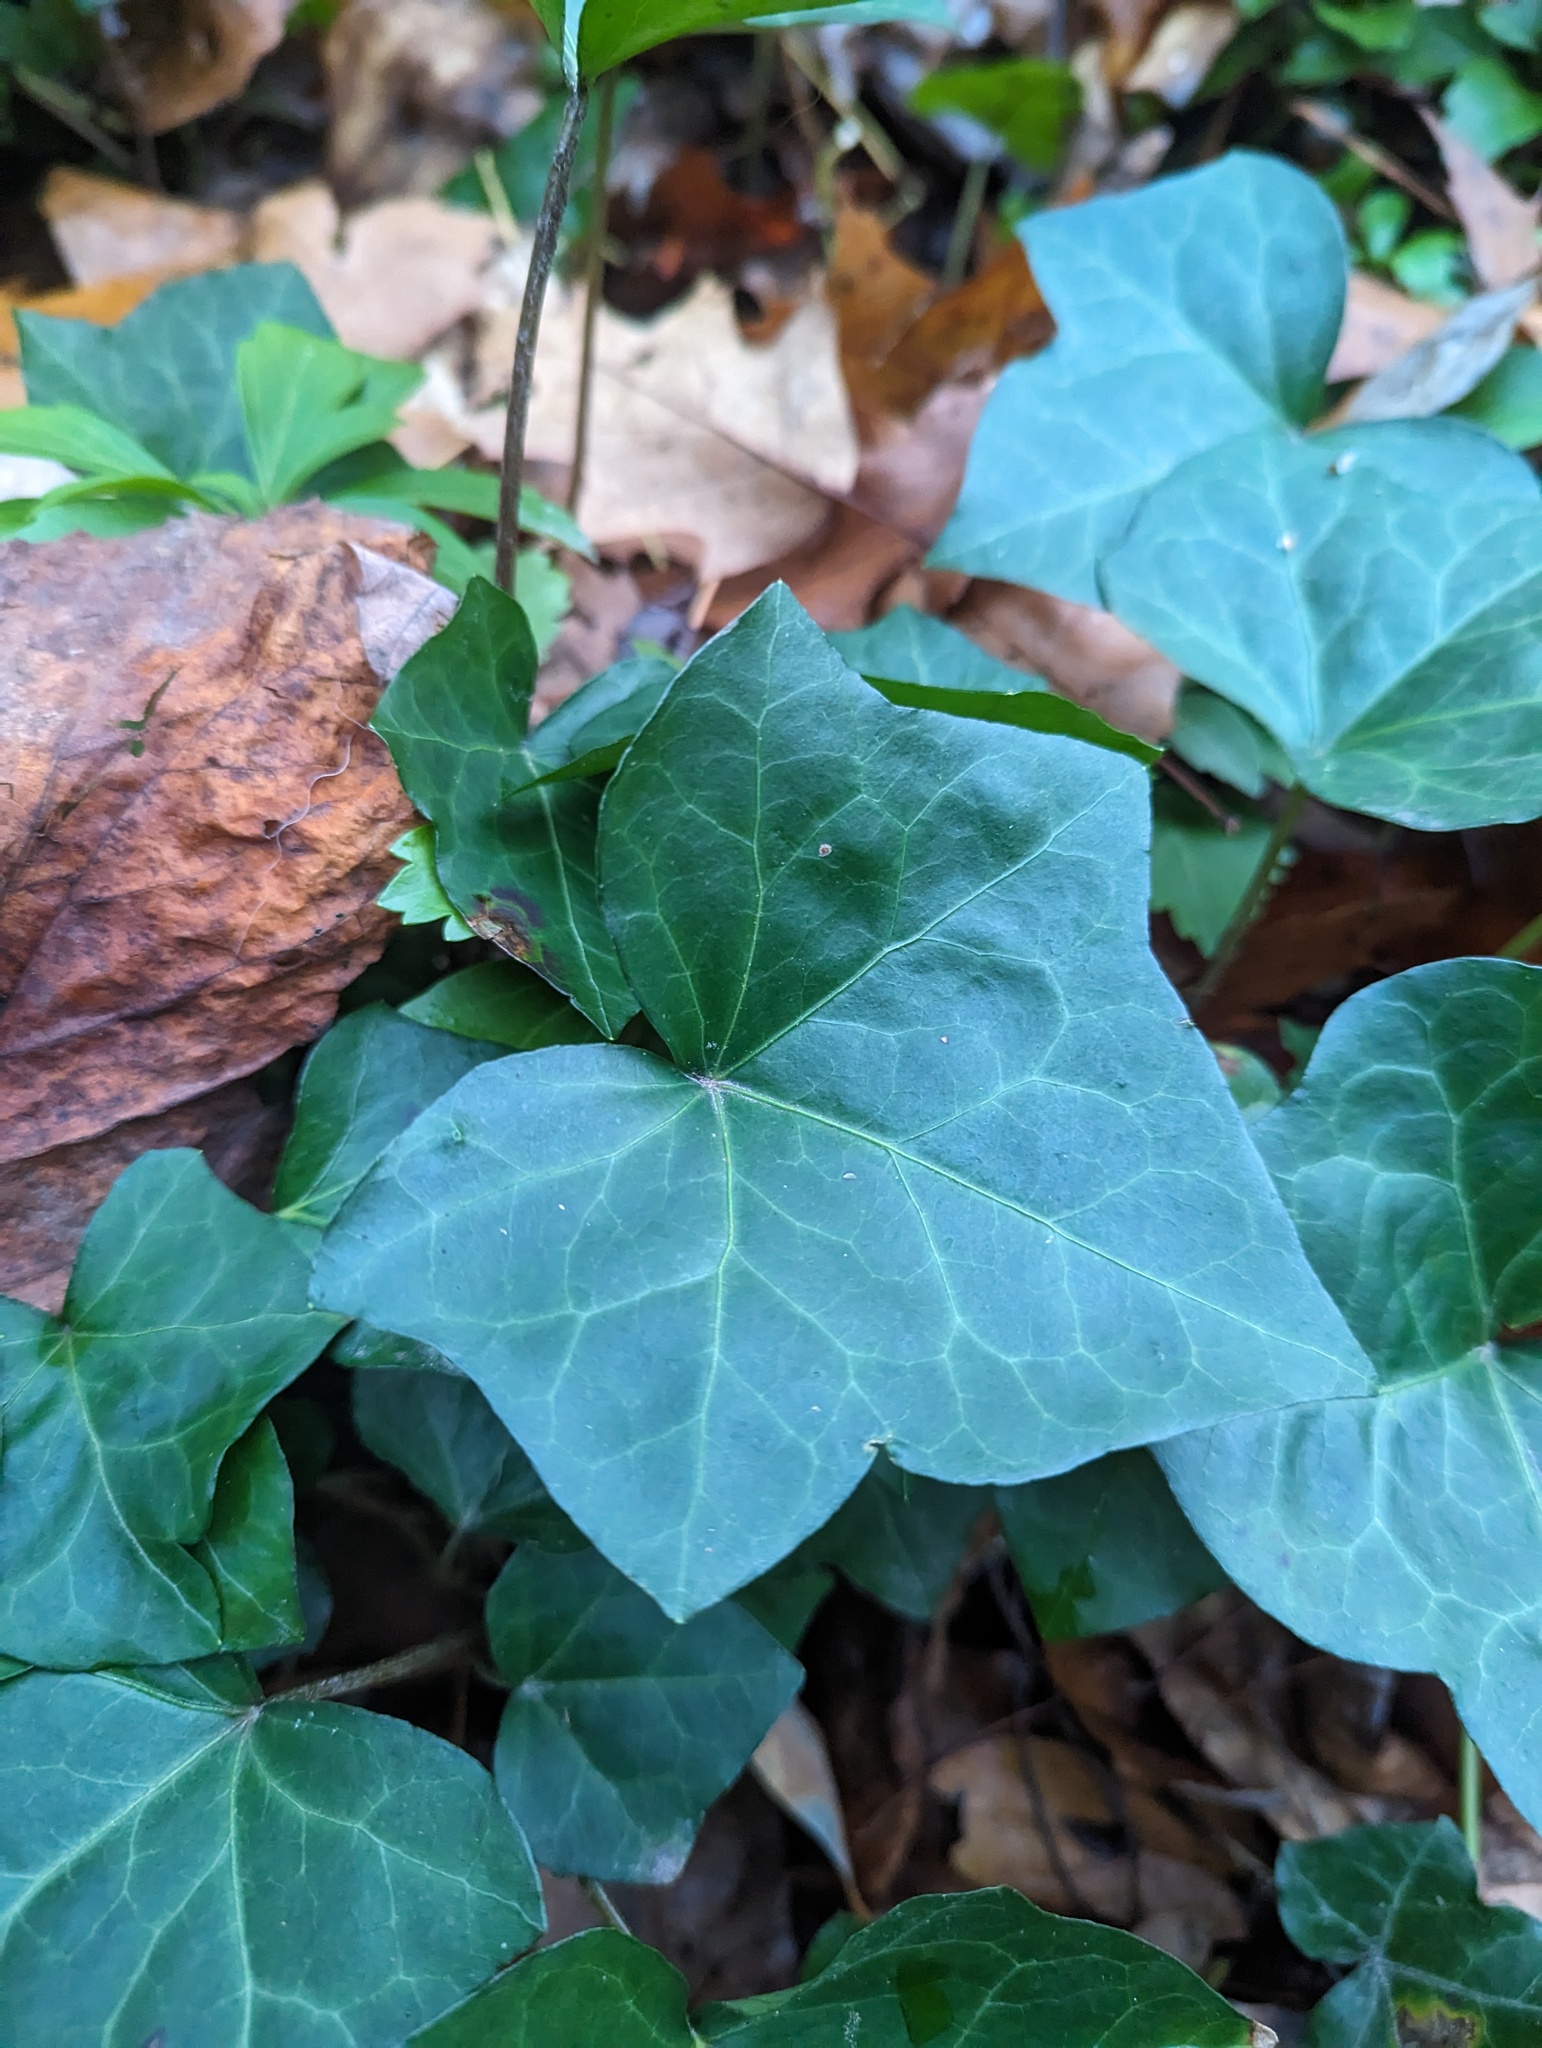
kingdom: Plantae
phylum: Tracheophyta
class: Magnoliopsida
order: Apiales
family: Araliaceae
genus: Hedera
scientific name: Hedera helix
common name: Ivy
